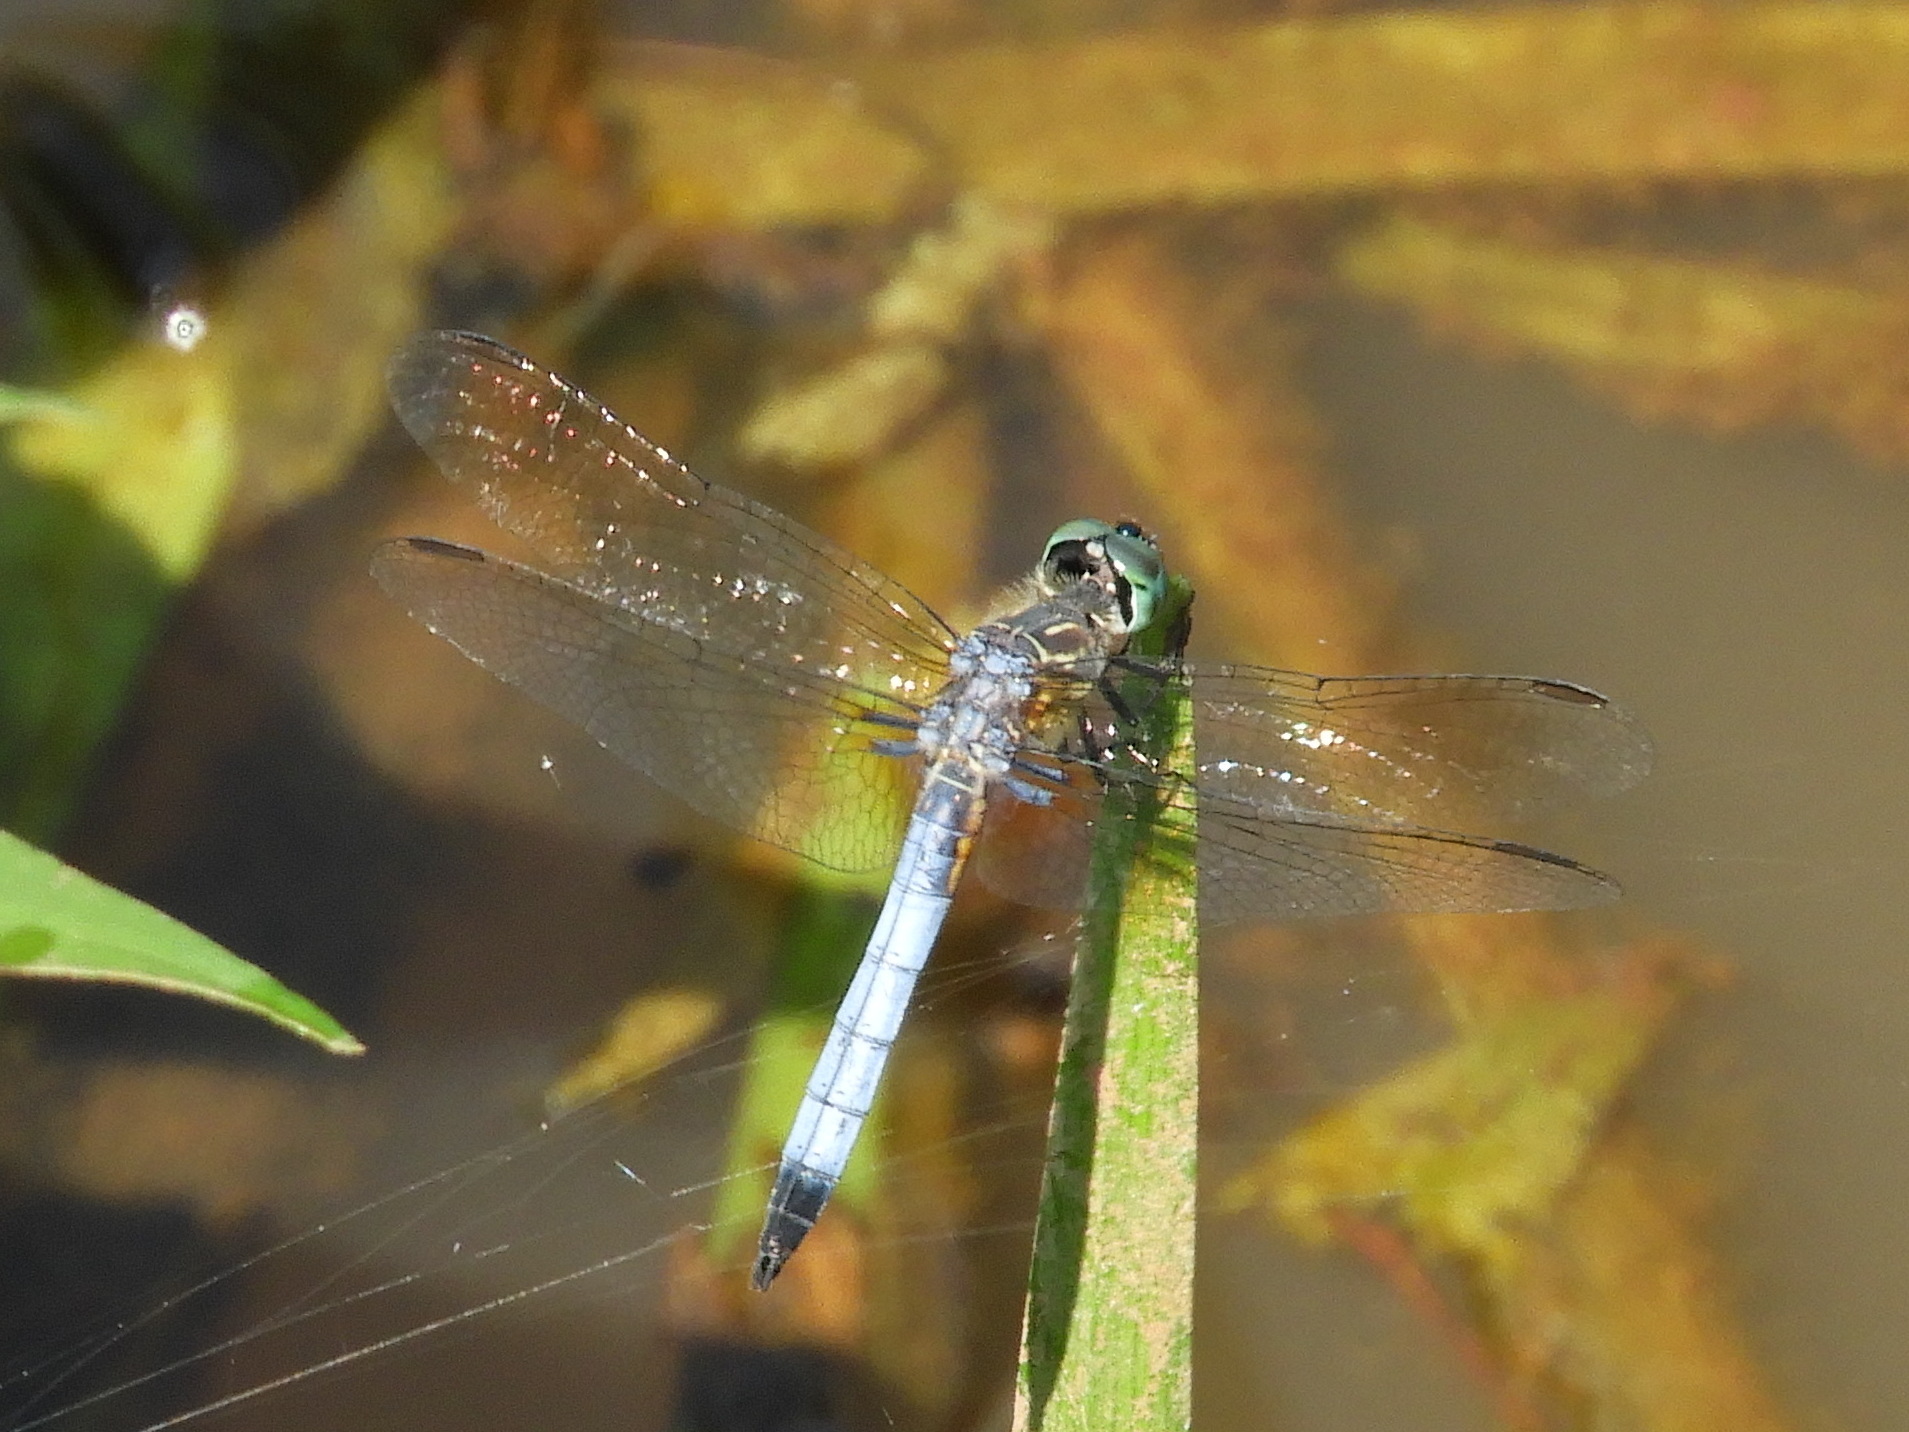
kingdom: Animalia
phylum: Arthropoda
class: Insecta
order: Odonata
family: Libellulidae
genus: Pachydiplax
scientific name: Pachydiplax longipennis
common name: Blue dasher
